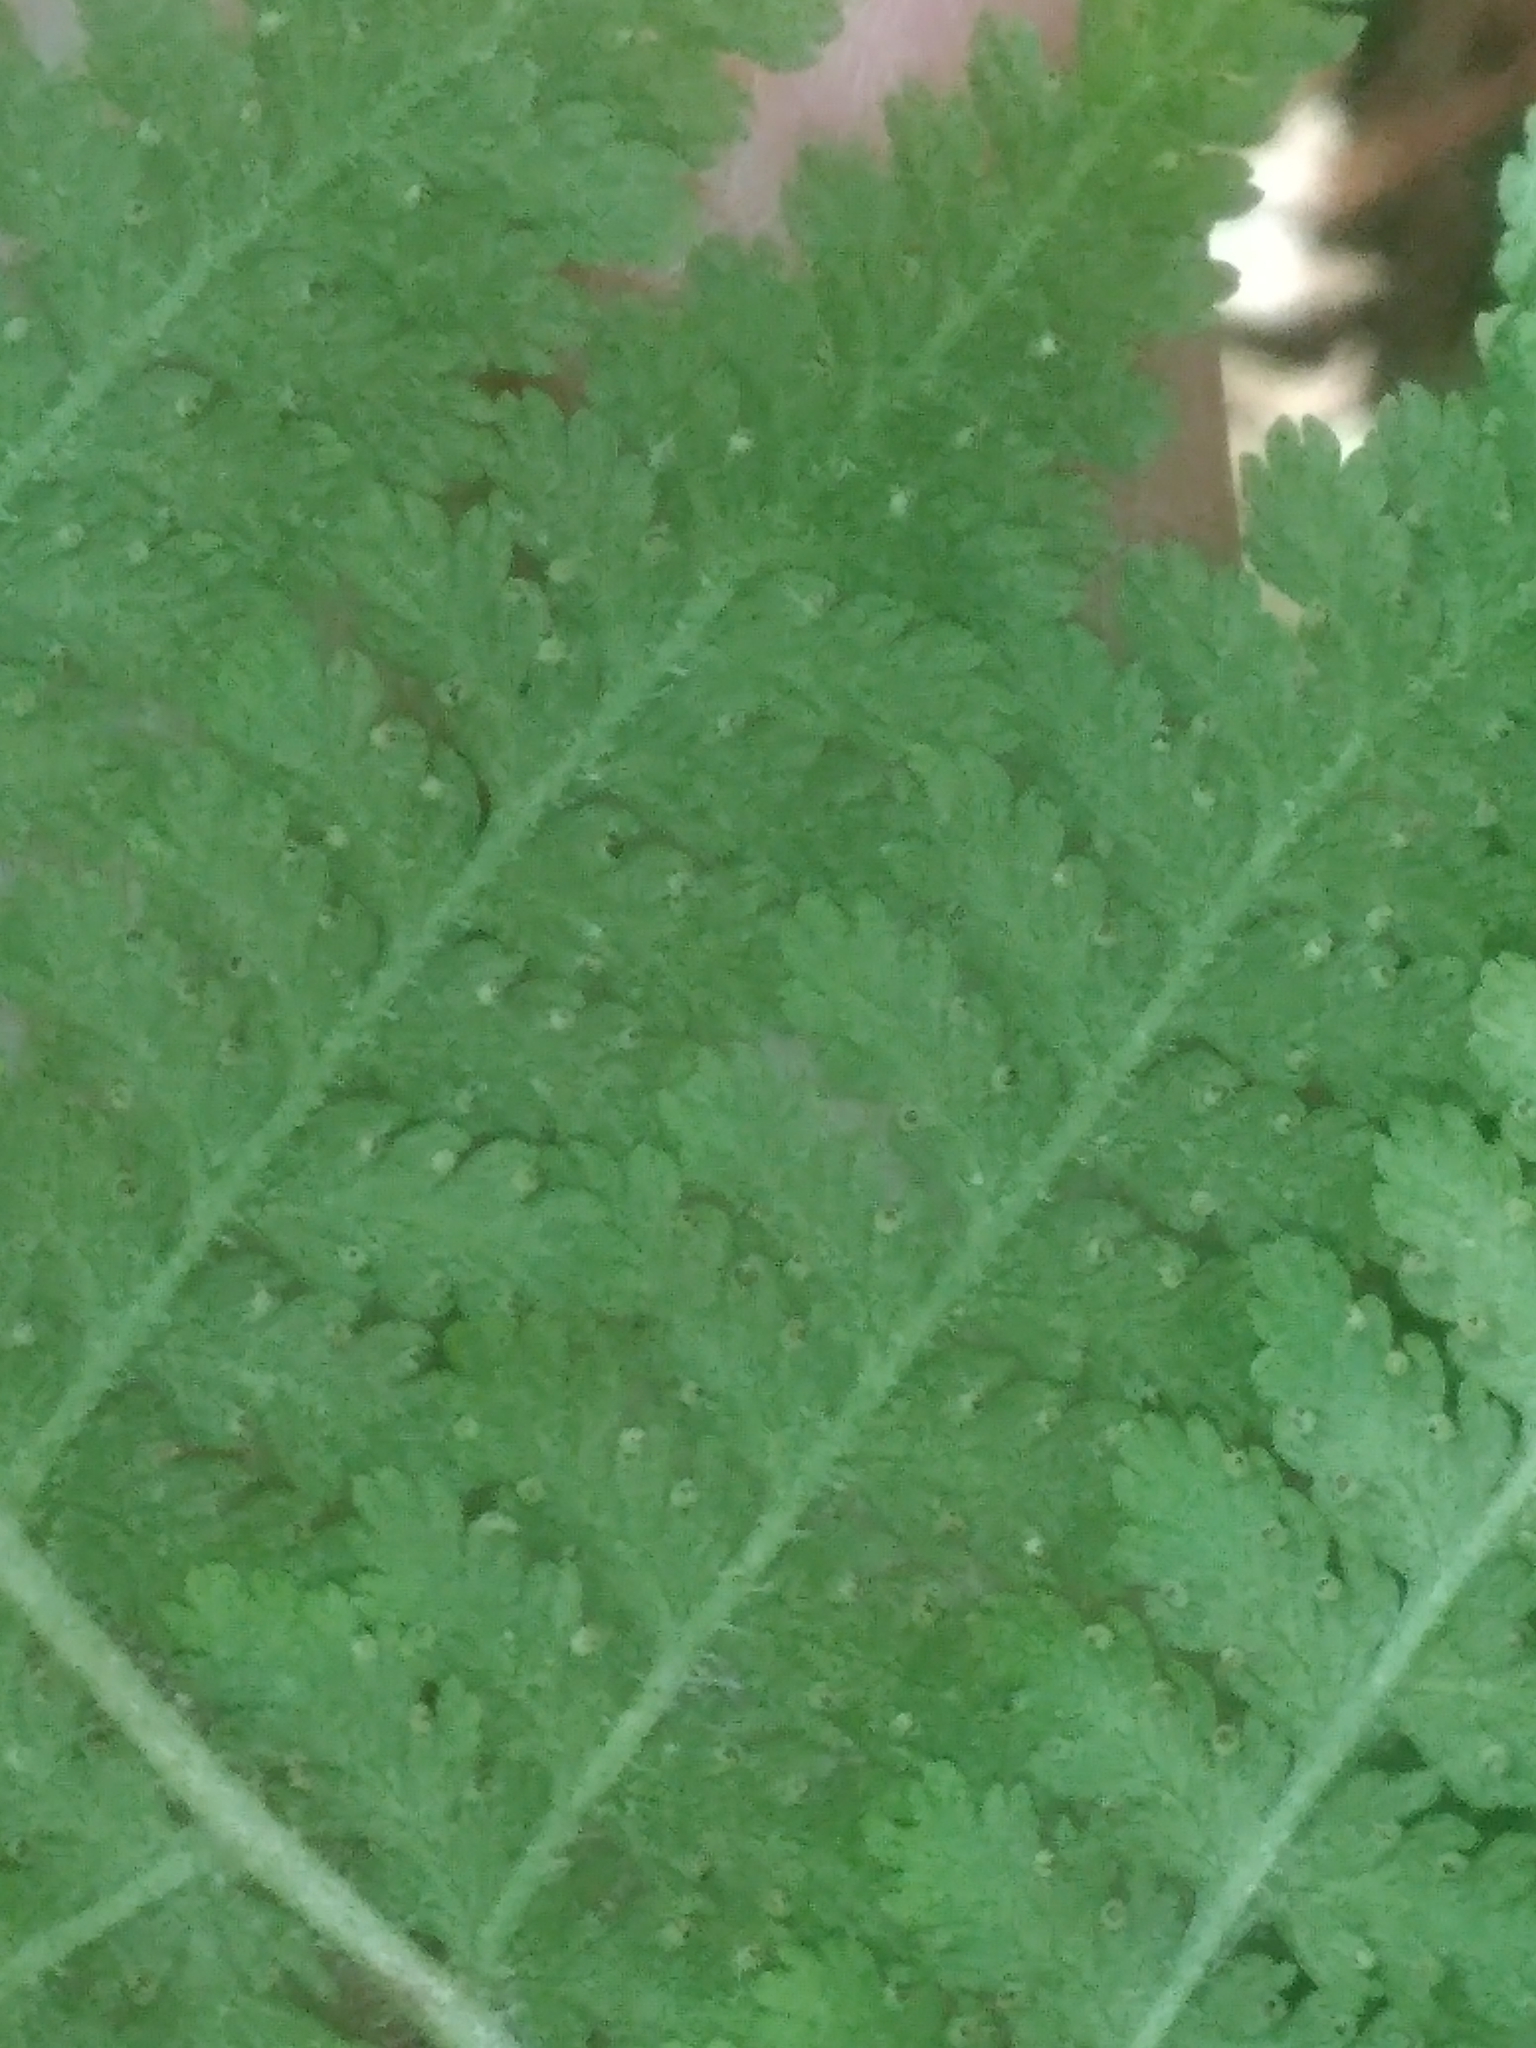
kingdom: Plantae
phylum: Tracheophyta
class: Polypodiopsida
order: Polypodiales
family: Dennstaedtiaceae
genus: Sitobolium
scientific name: Sitobolium punctilobum
